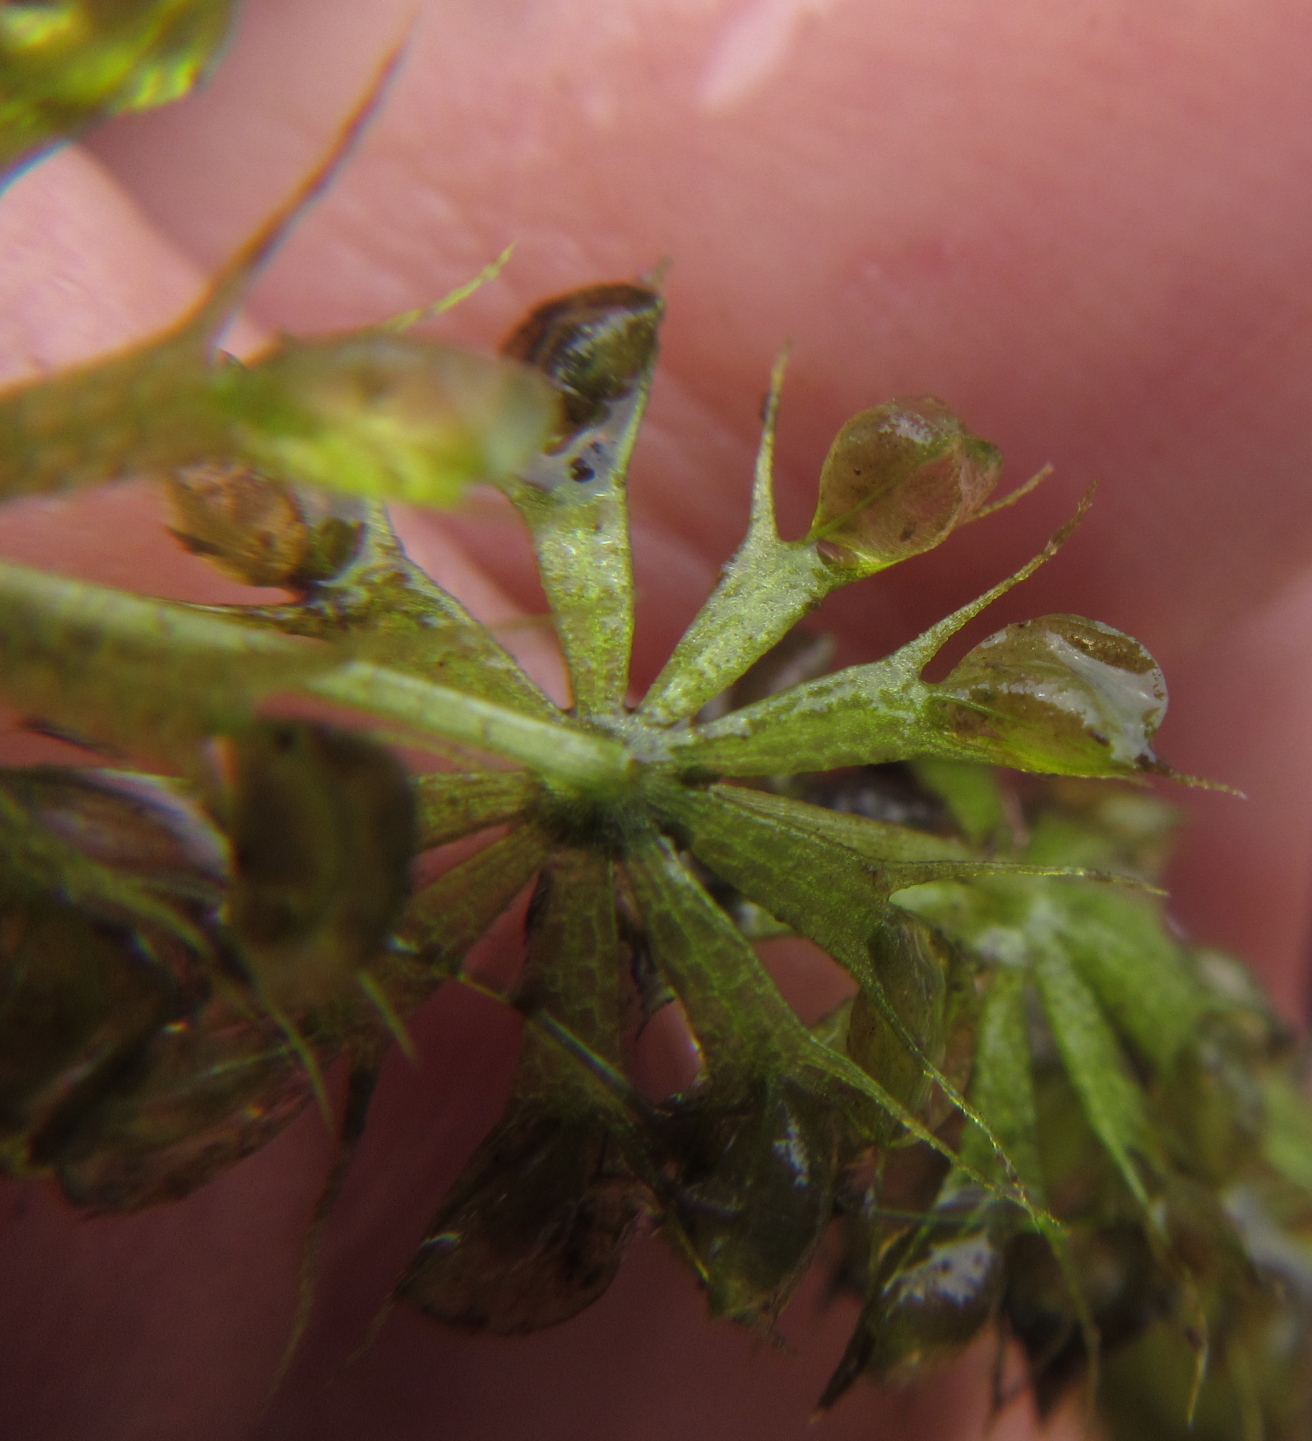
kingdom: Plantae
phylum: Tracheophyta
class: Magnoliopsida
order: Caryophyllales
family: Droseraceae
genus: Aldrovanda
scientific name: Aldrovanda vesiculosa
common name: Waterwheel plant
